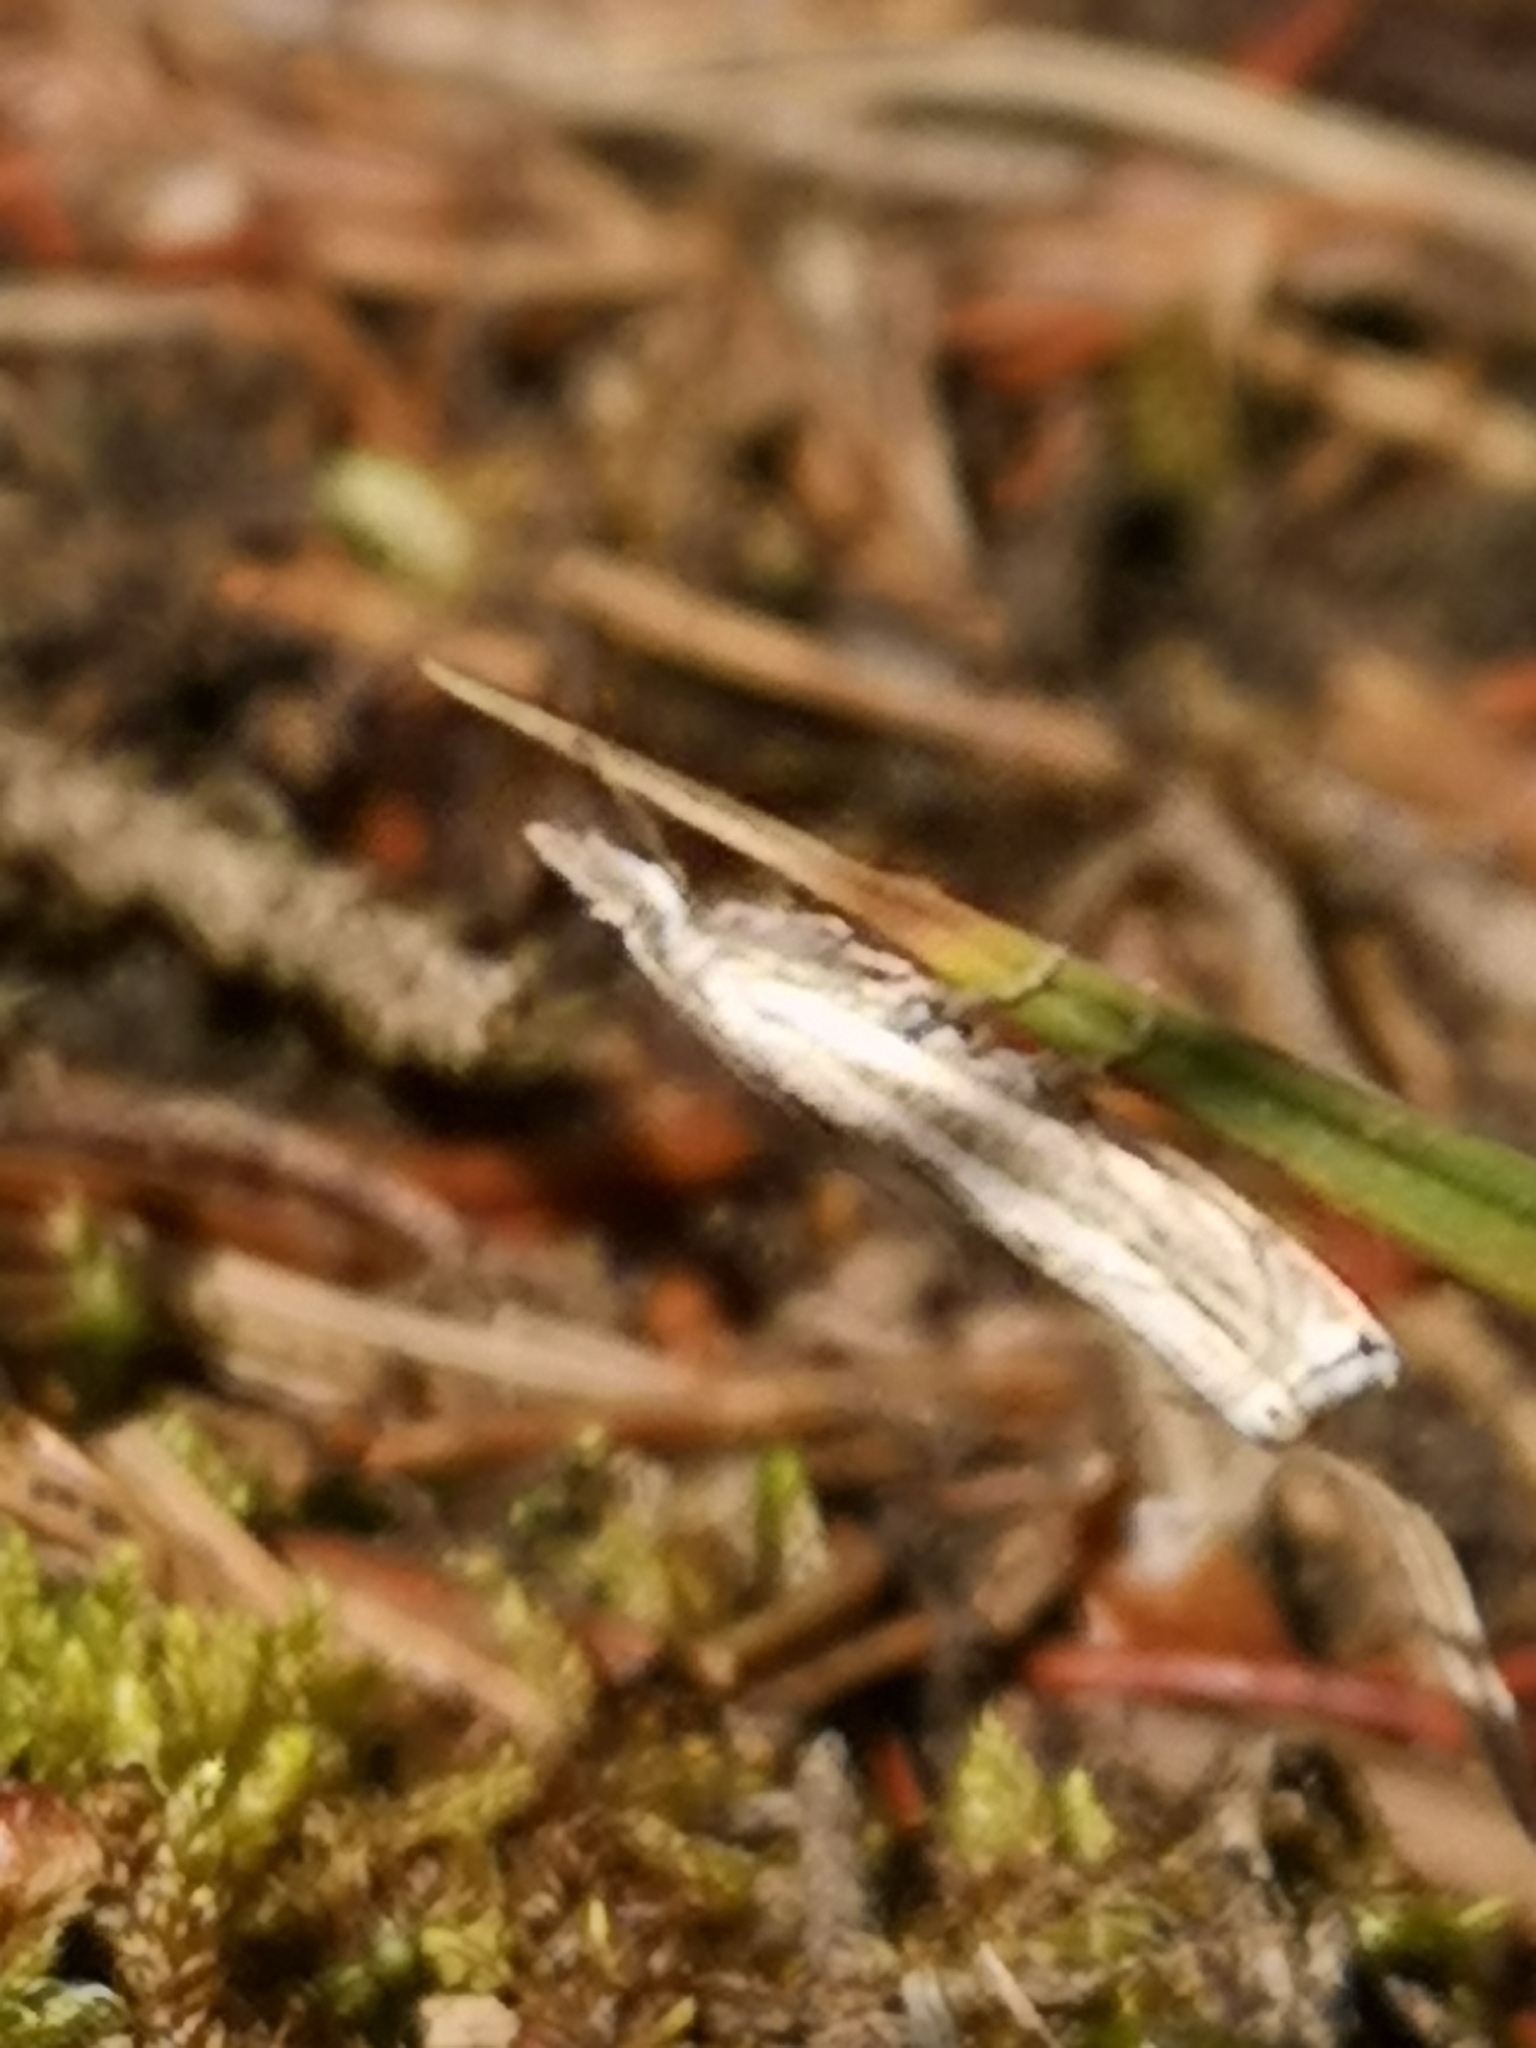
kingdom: Animalia
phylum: Arthropoda
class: Insecta
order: Lepidoptera
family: Crambidae
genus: Crambus
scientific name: Crambus nemorella
